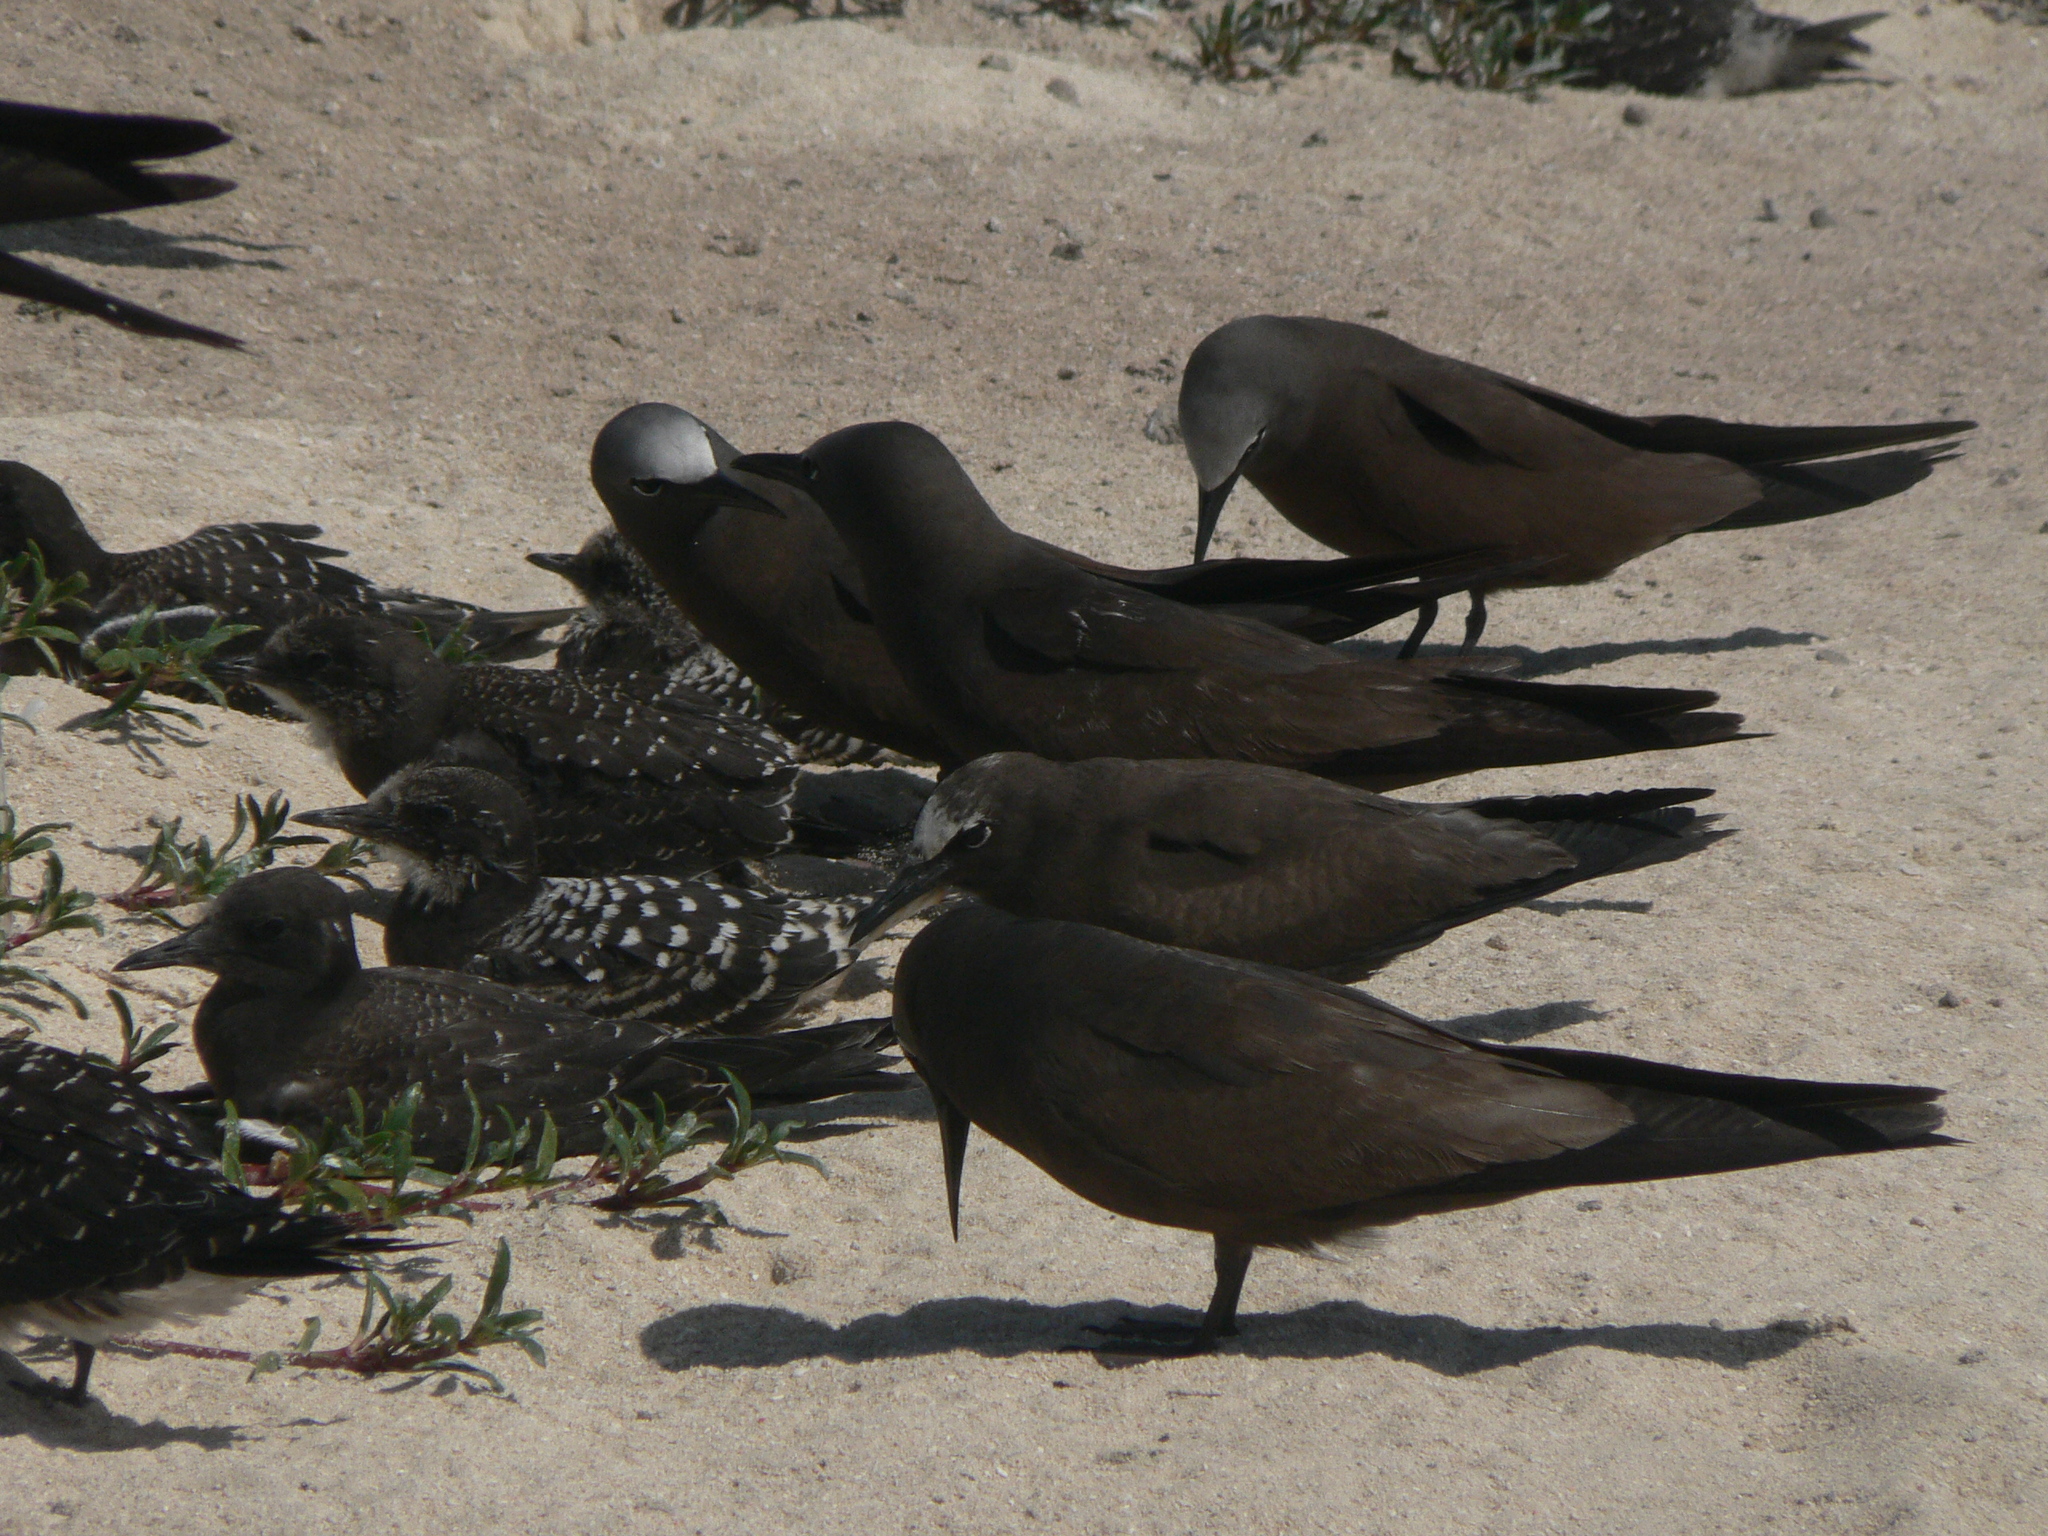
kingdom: Animalia
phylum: Chordata
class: Aves
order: Charadriiformes
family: Laridae
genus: Anous
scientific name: Anous stolidus
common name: Brown noddy
